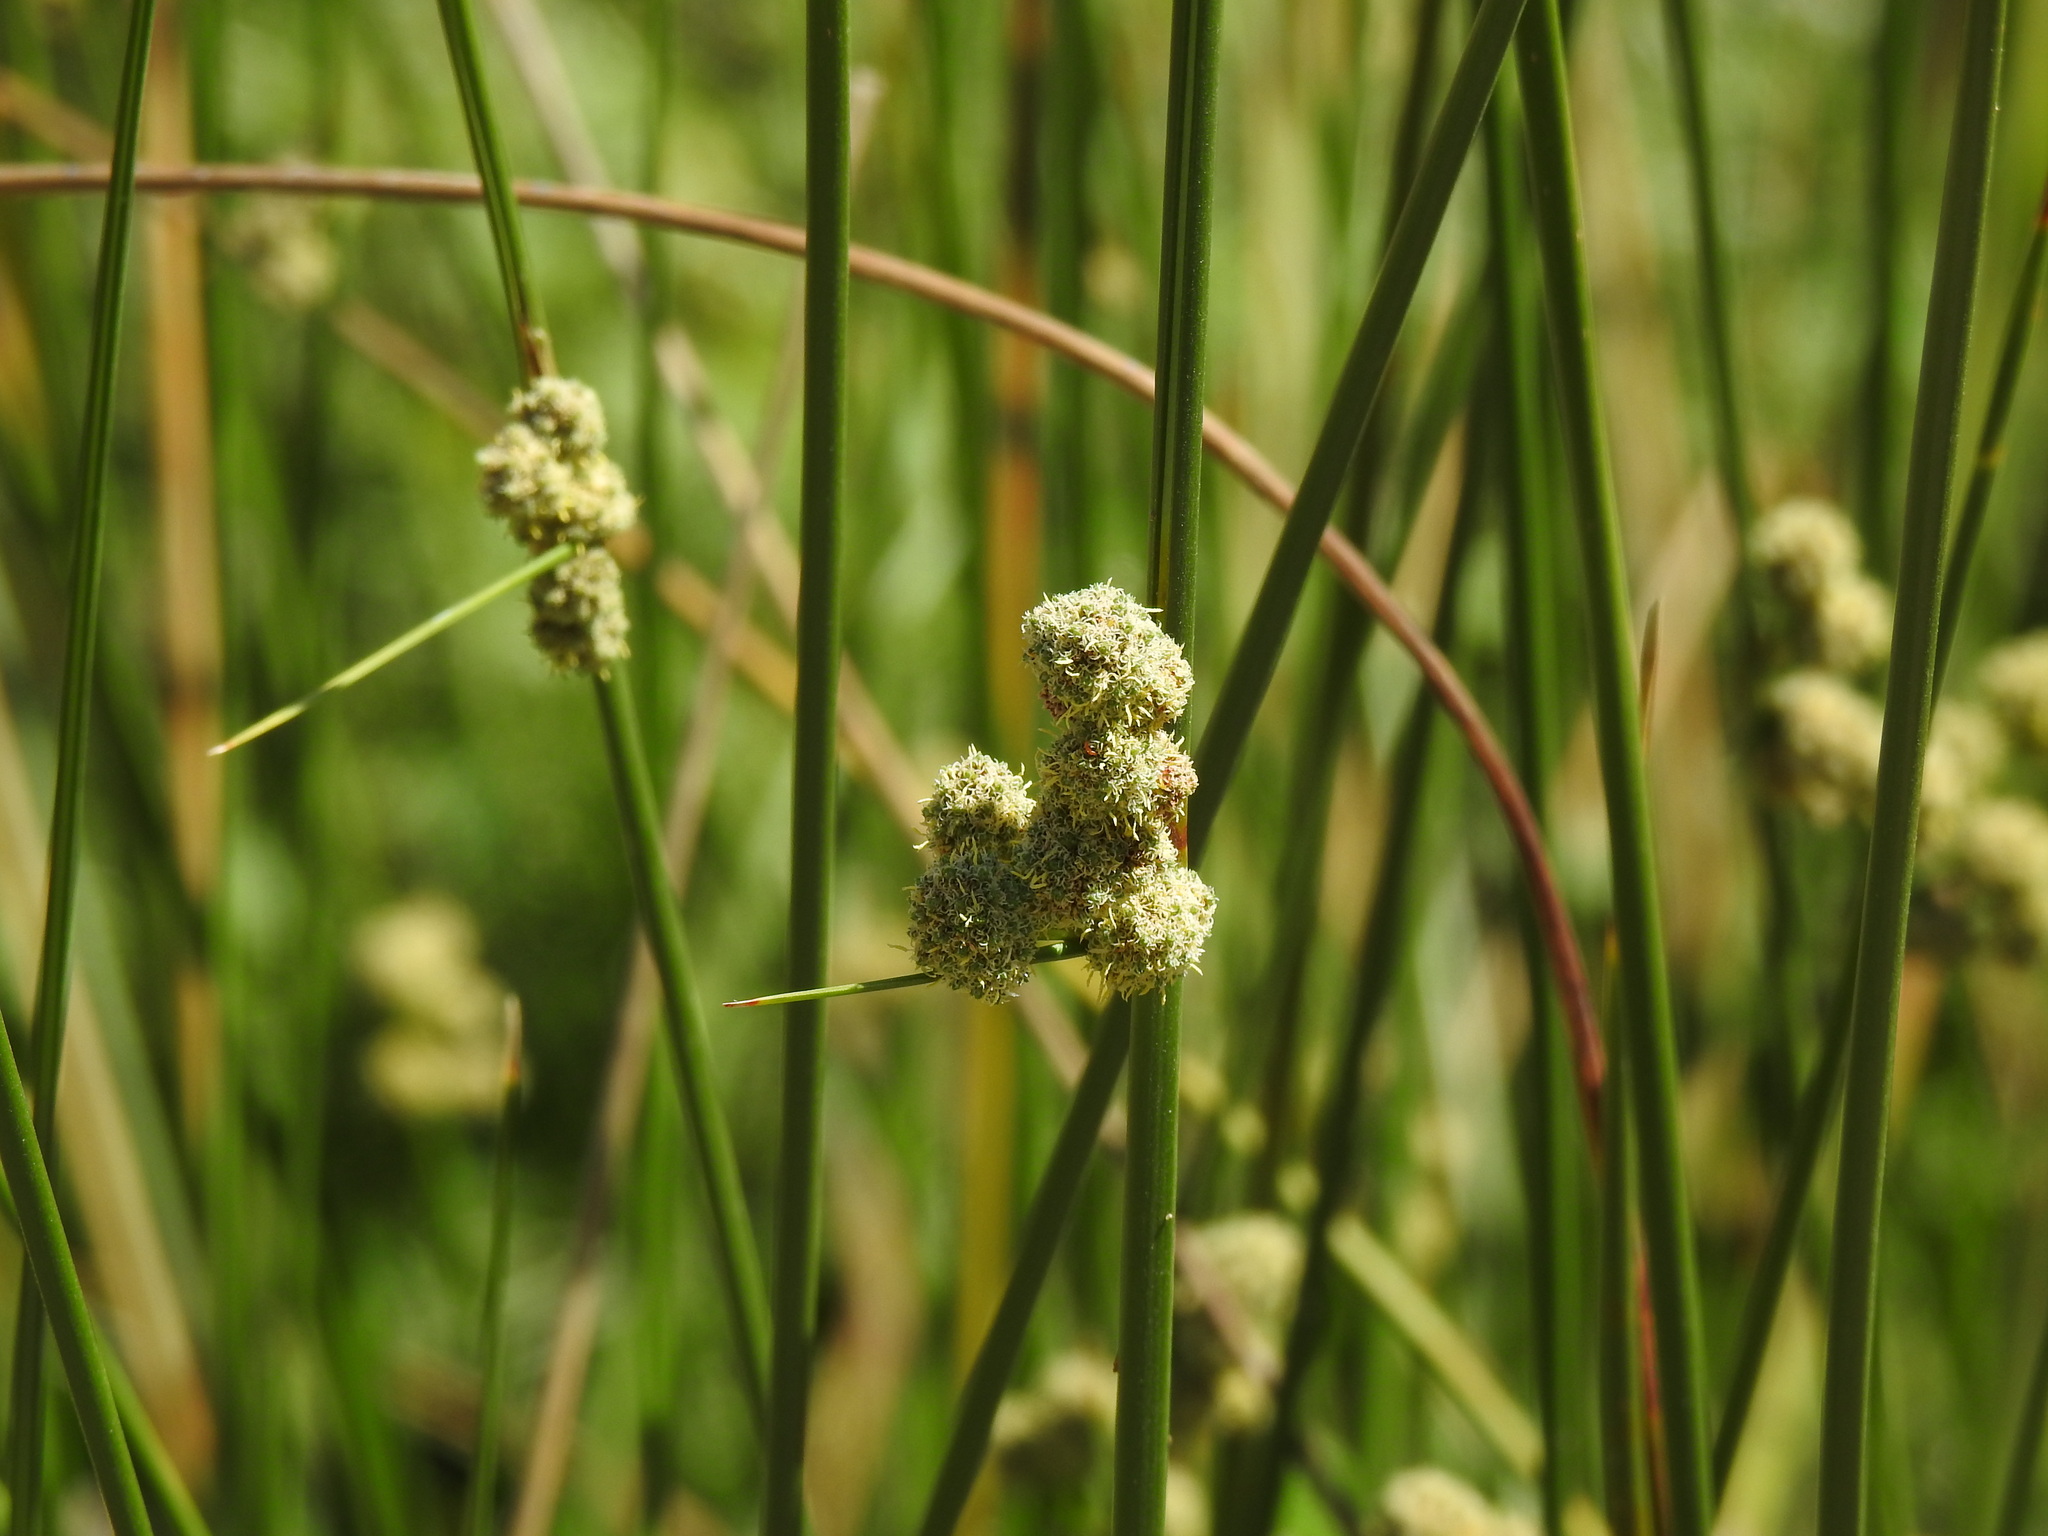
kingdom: Plantae
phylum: Tracheophyta
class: Liliopsida
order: Poales
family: Cyperaceae
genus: Scirpoides
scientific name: Scirpoides holoschoenus
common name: Round-headed club-rush
